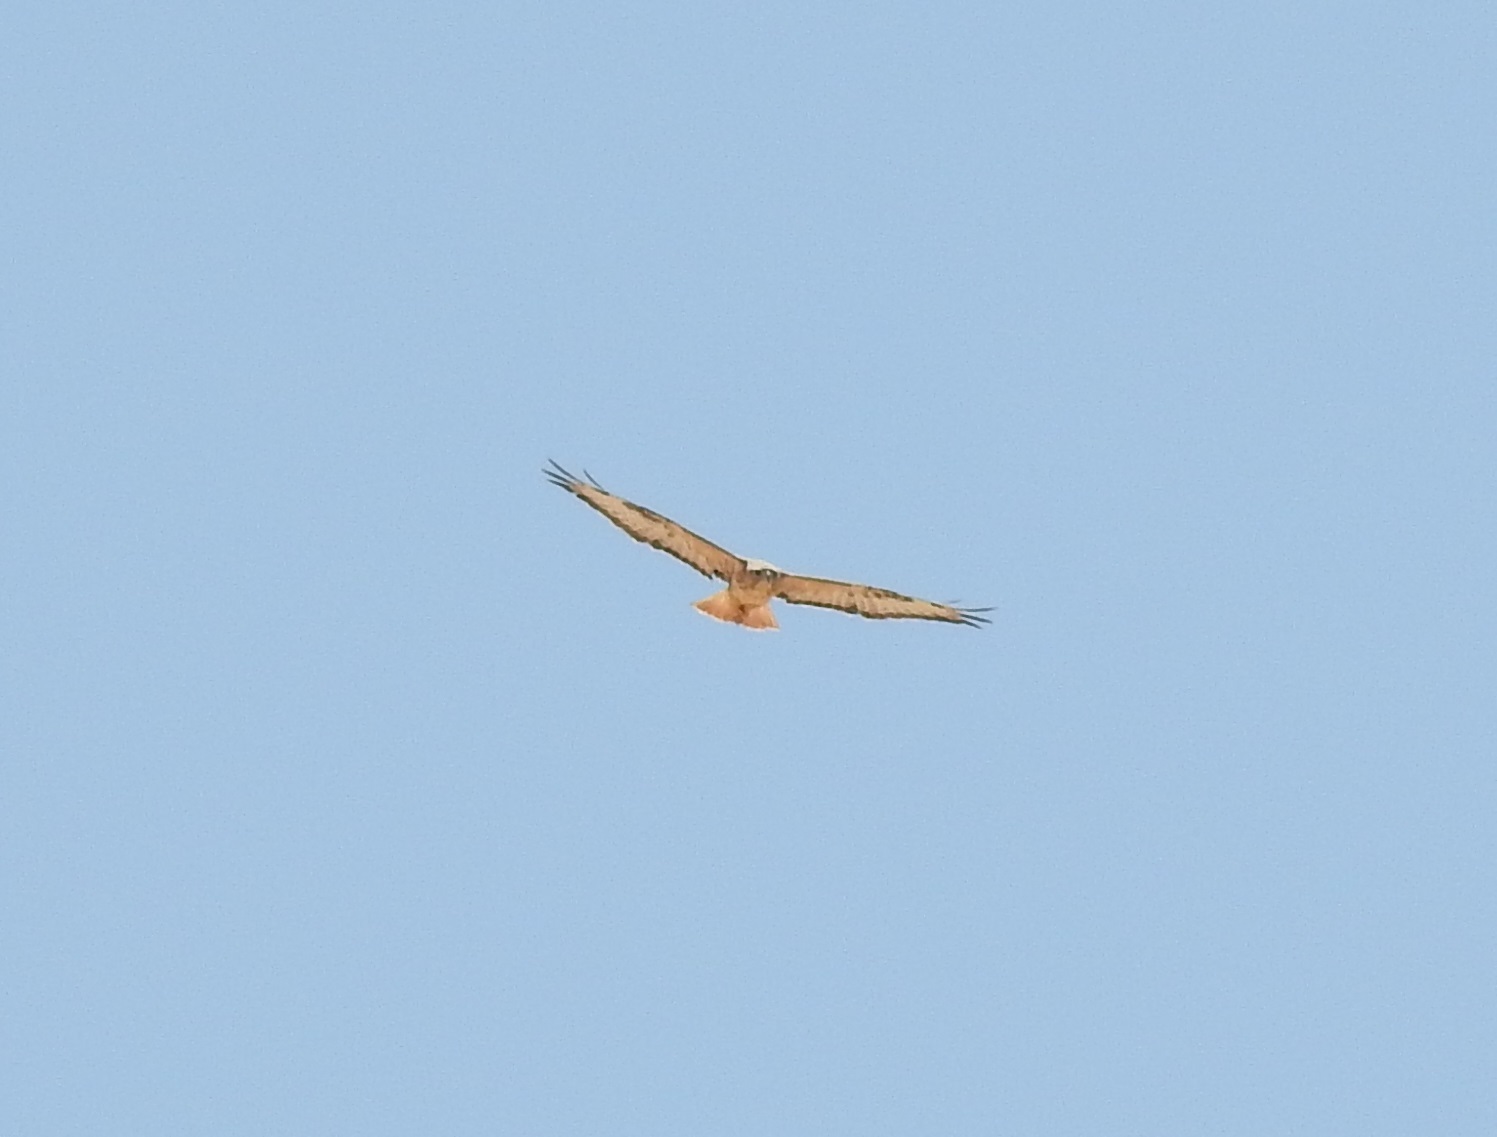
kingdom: Animalia
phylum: Chordata
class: Aves
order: Accipitriformes
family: Accipitridae
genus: Buteo
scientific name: Buteo rufinus
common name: Long-legged buzzard
